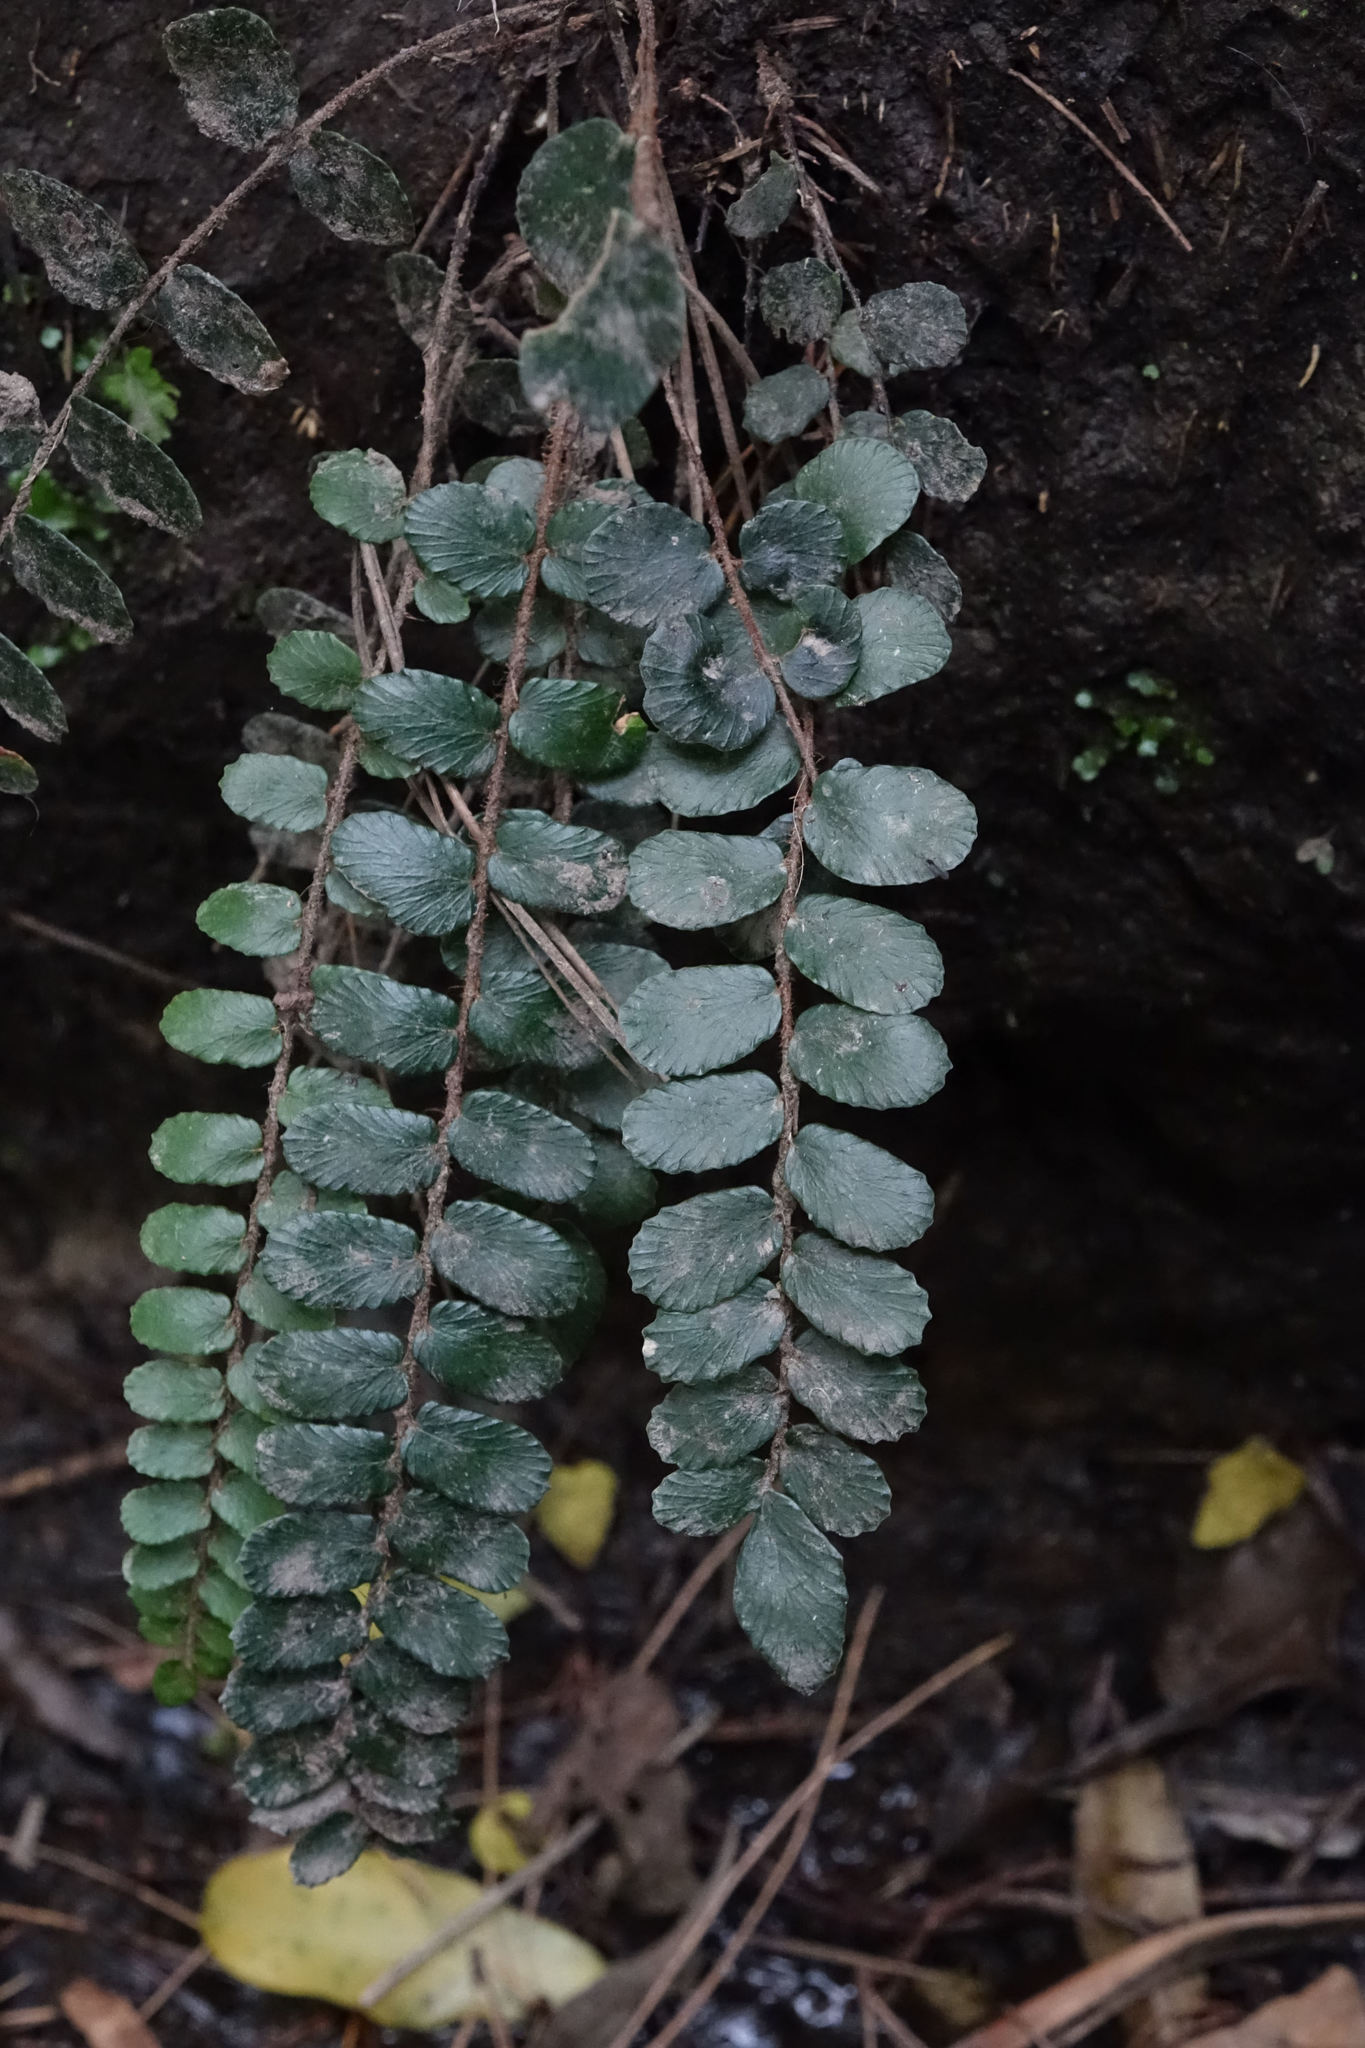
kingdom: Plantae
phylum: Tracheophyta
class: Polypodiopsida
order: Polypodiales
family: Pteridaceae
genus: Pellaea
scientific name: Pellaea rotundifolia
